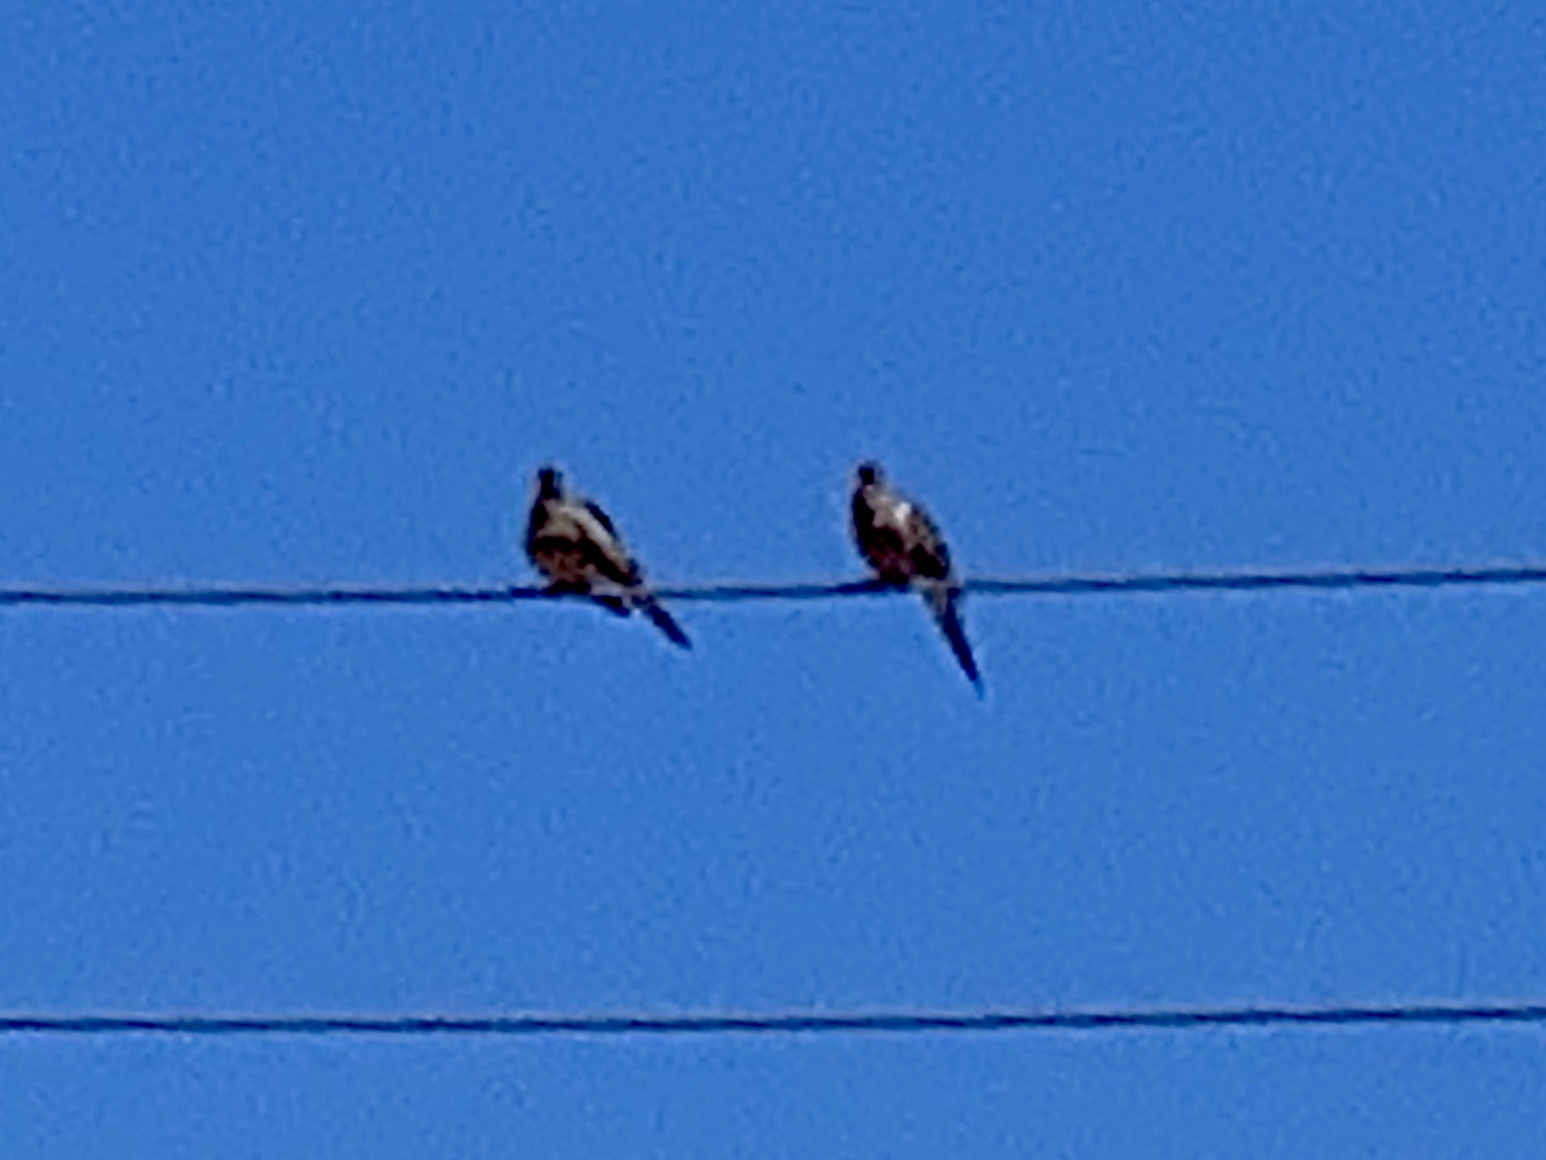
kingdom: Animalia
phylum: Chordata
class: Aves
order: Columbiformes
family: Columbidae
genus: Zenaida
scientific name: Zenaida macroura
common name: Mourning dove
